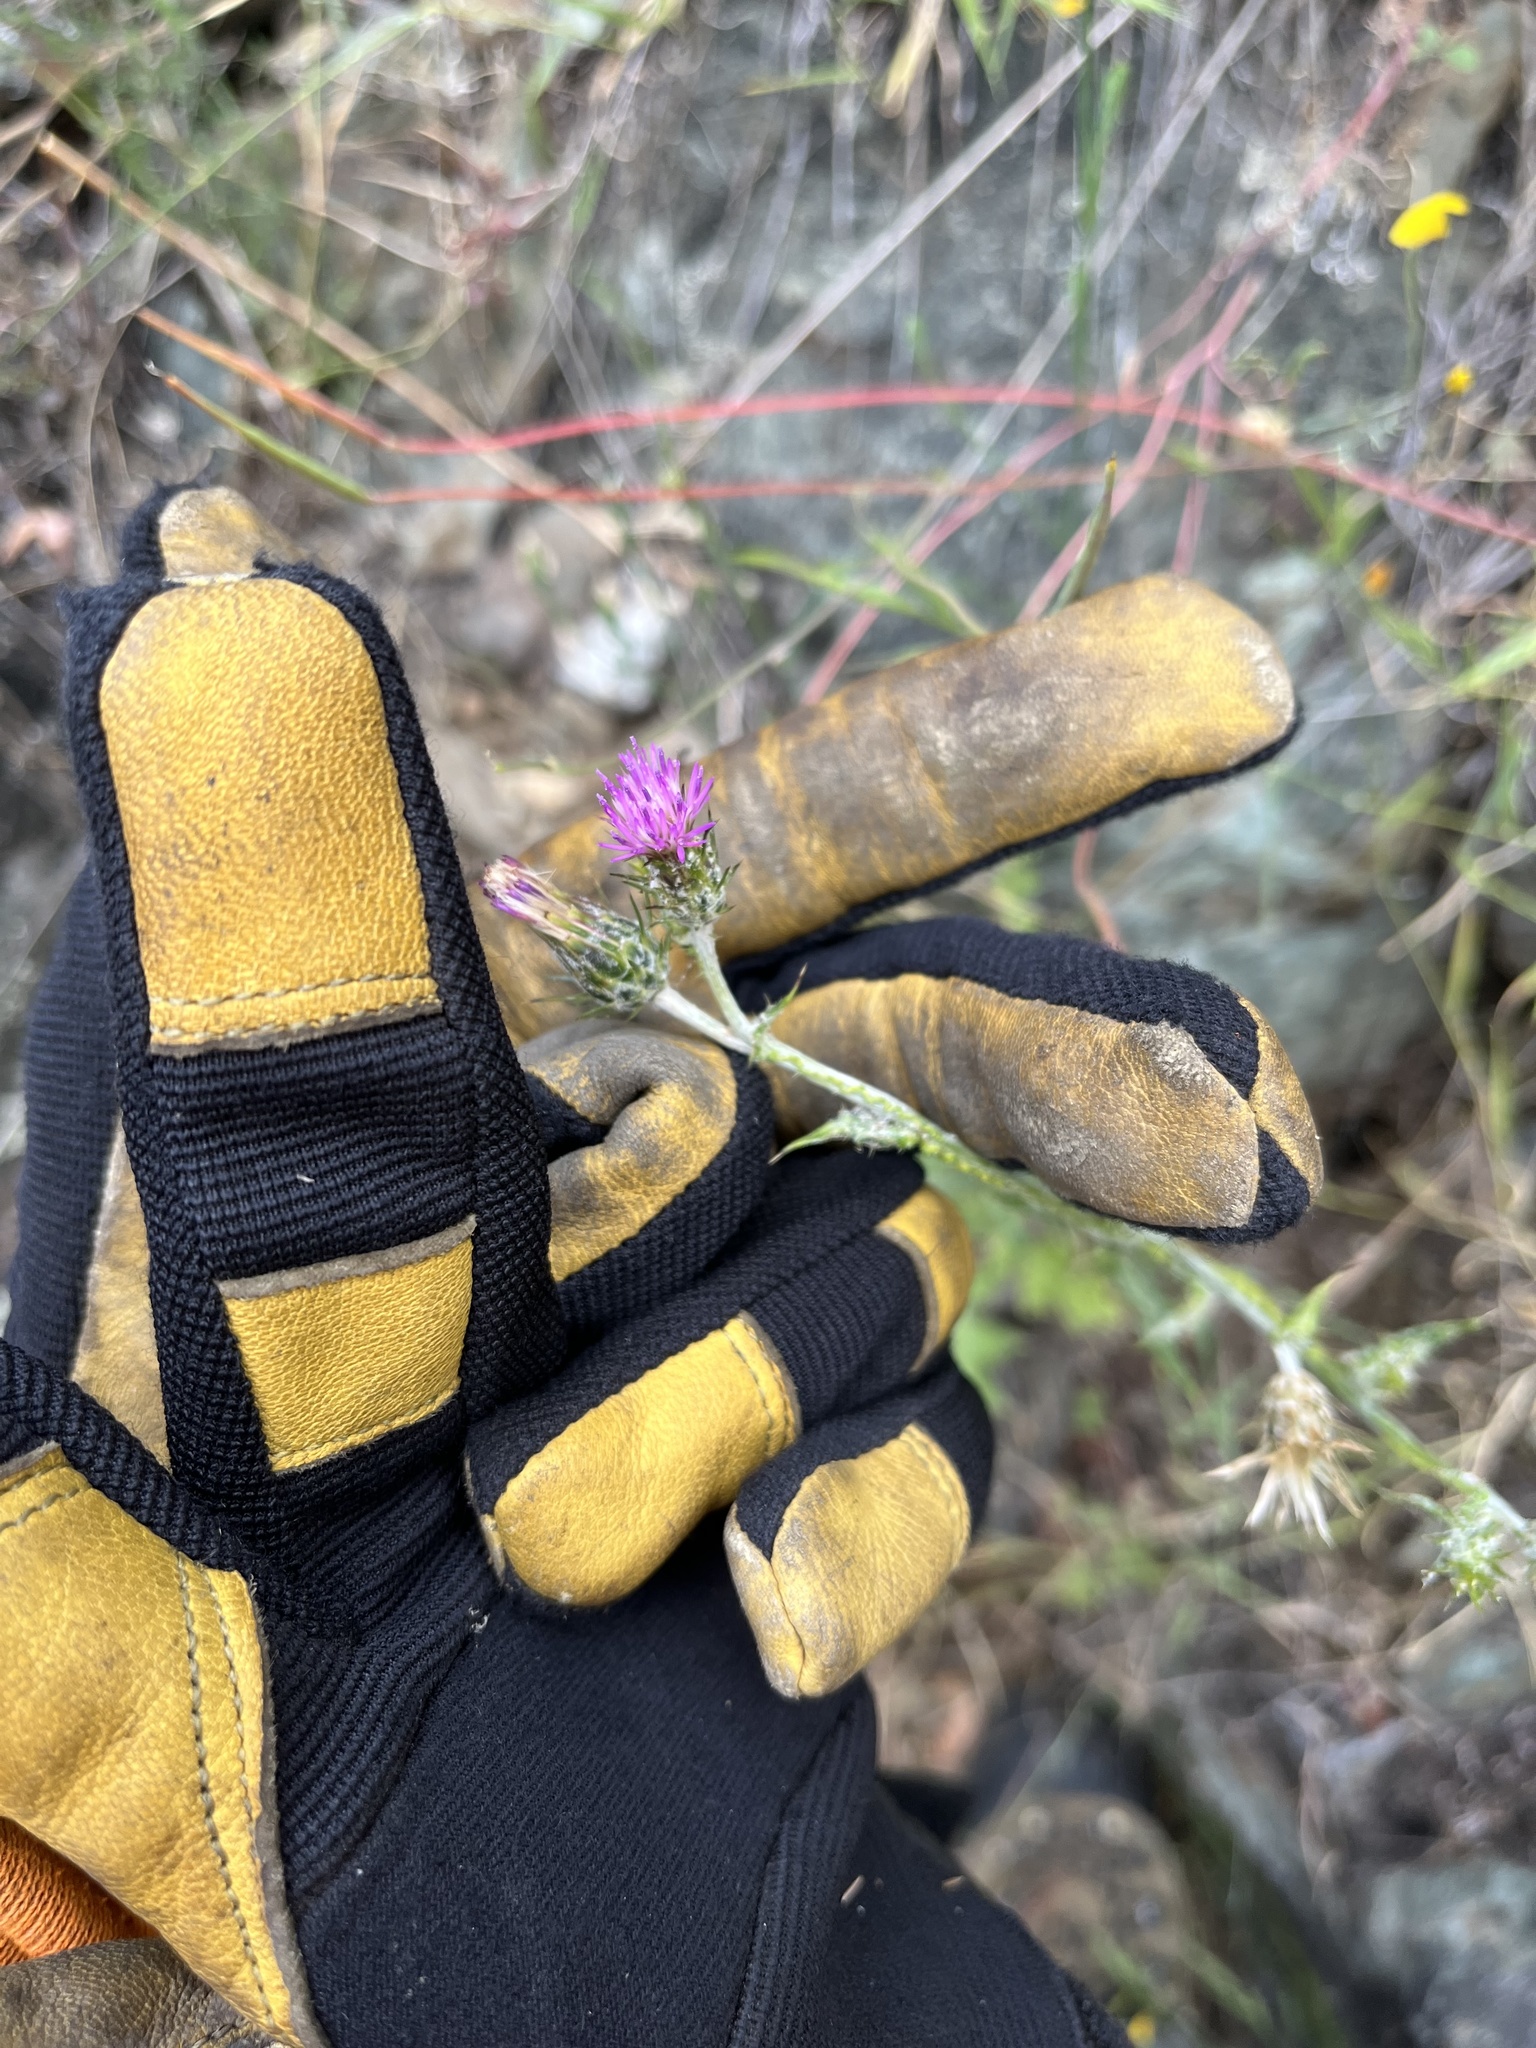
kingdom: Plantae
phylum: Tracheophyta
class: Magnoliopsida
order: Asterales
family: Asteraceae
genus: Carduus
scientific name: Carduus pycnocephalus
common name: Plymouth thistle
